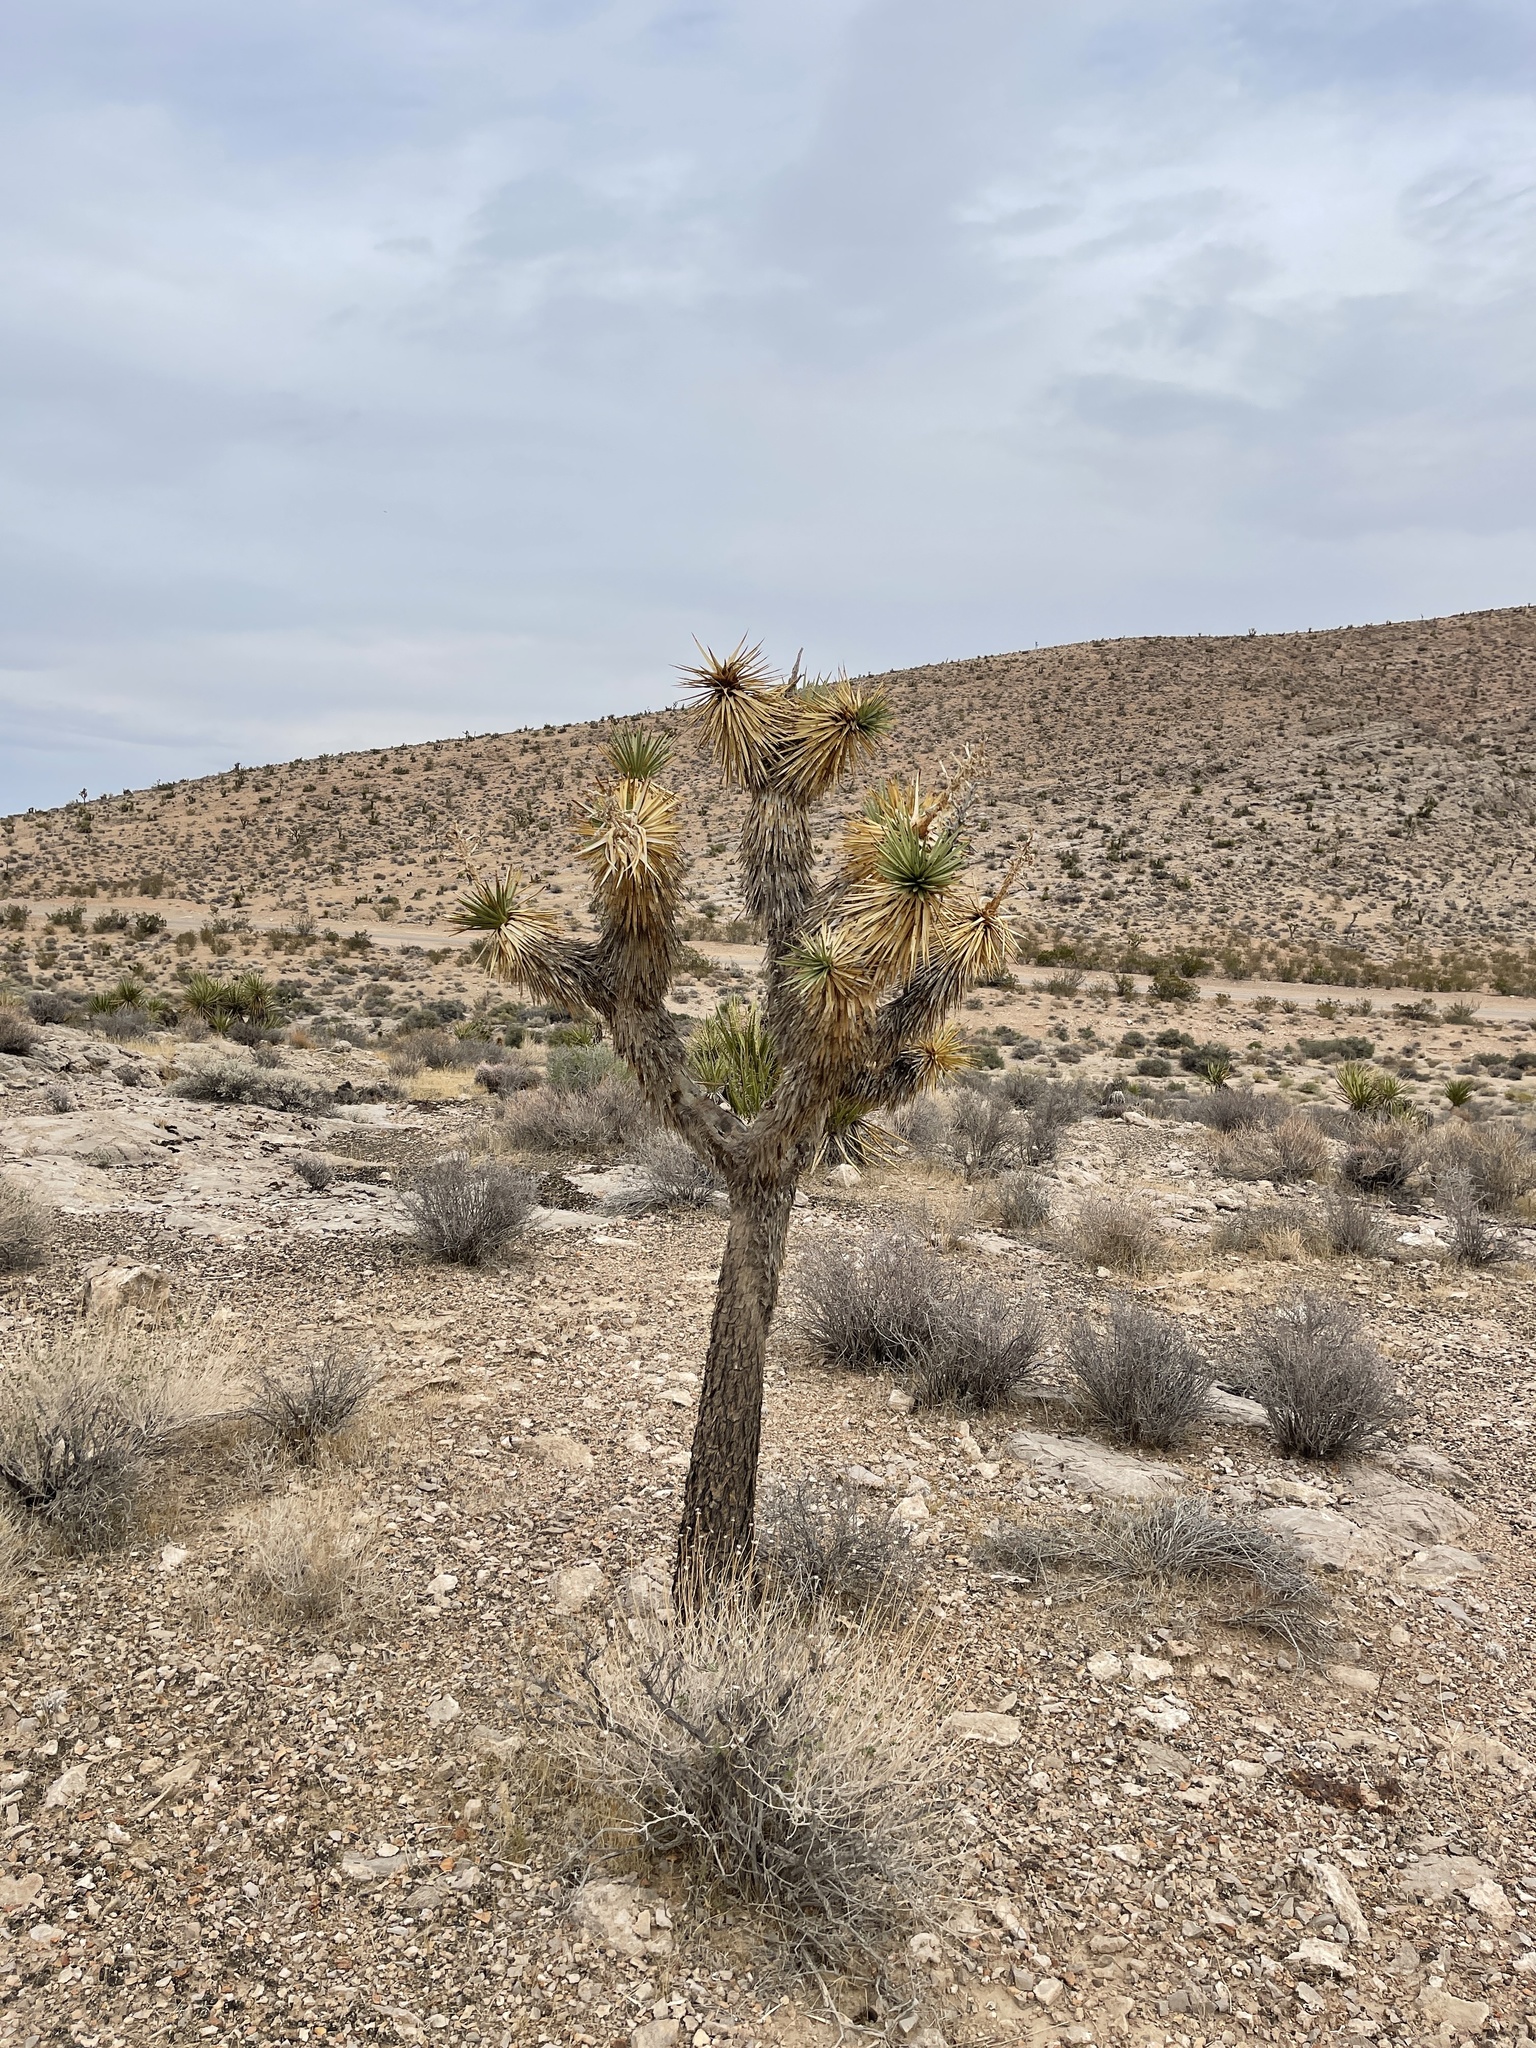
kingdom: Plantae
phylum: Tracheophyta
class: Liliopsida
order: Asparagales
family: Asparagaceae
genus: Yucca
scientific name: Yucca brevifolia
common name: Joshua tree
